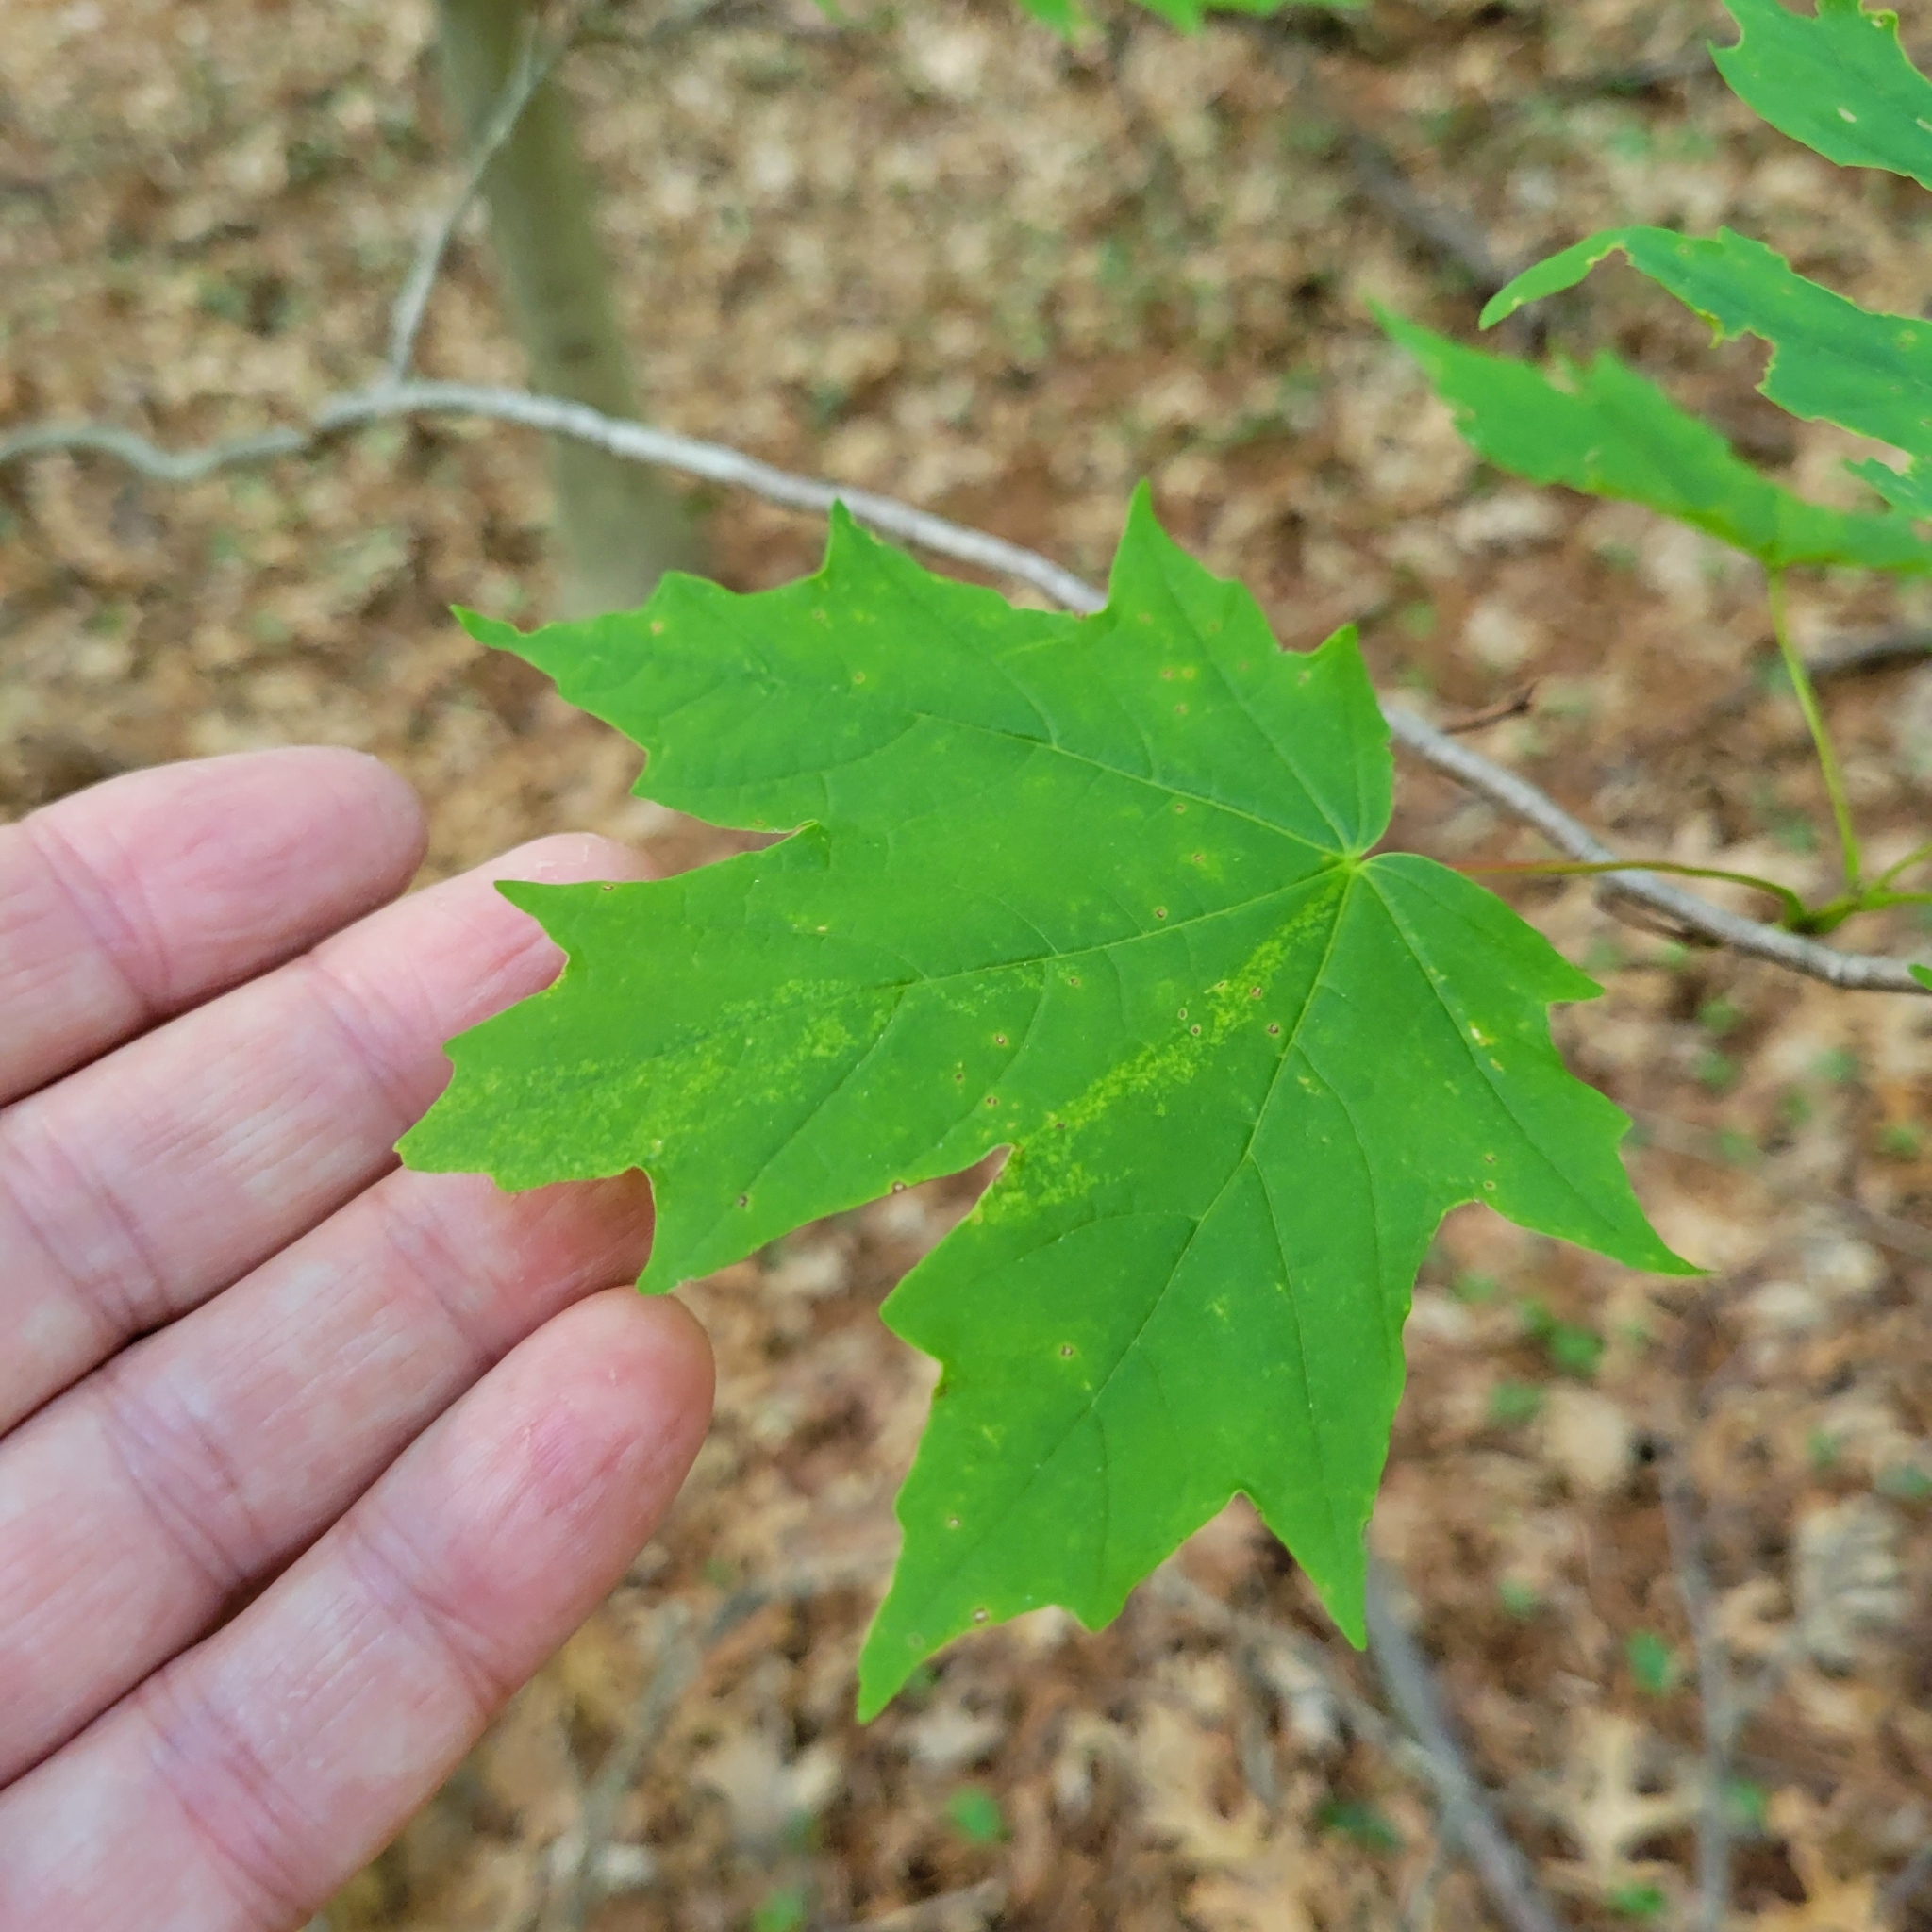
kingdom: Plantae
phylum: Tracheophyta
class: Magnoliopsida
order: Sapindales
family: Sapindaceae
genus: Acer
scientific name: Acer saccharum
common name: Sugar maple
